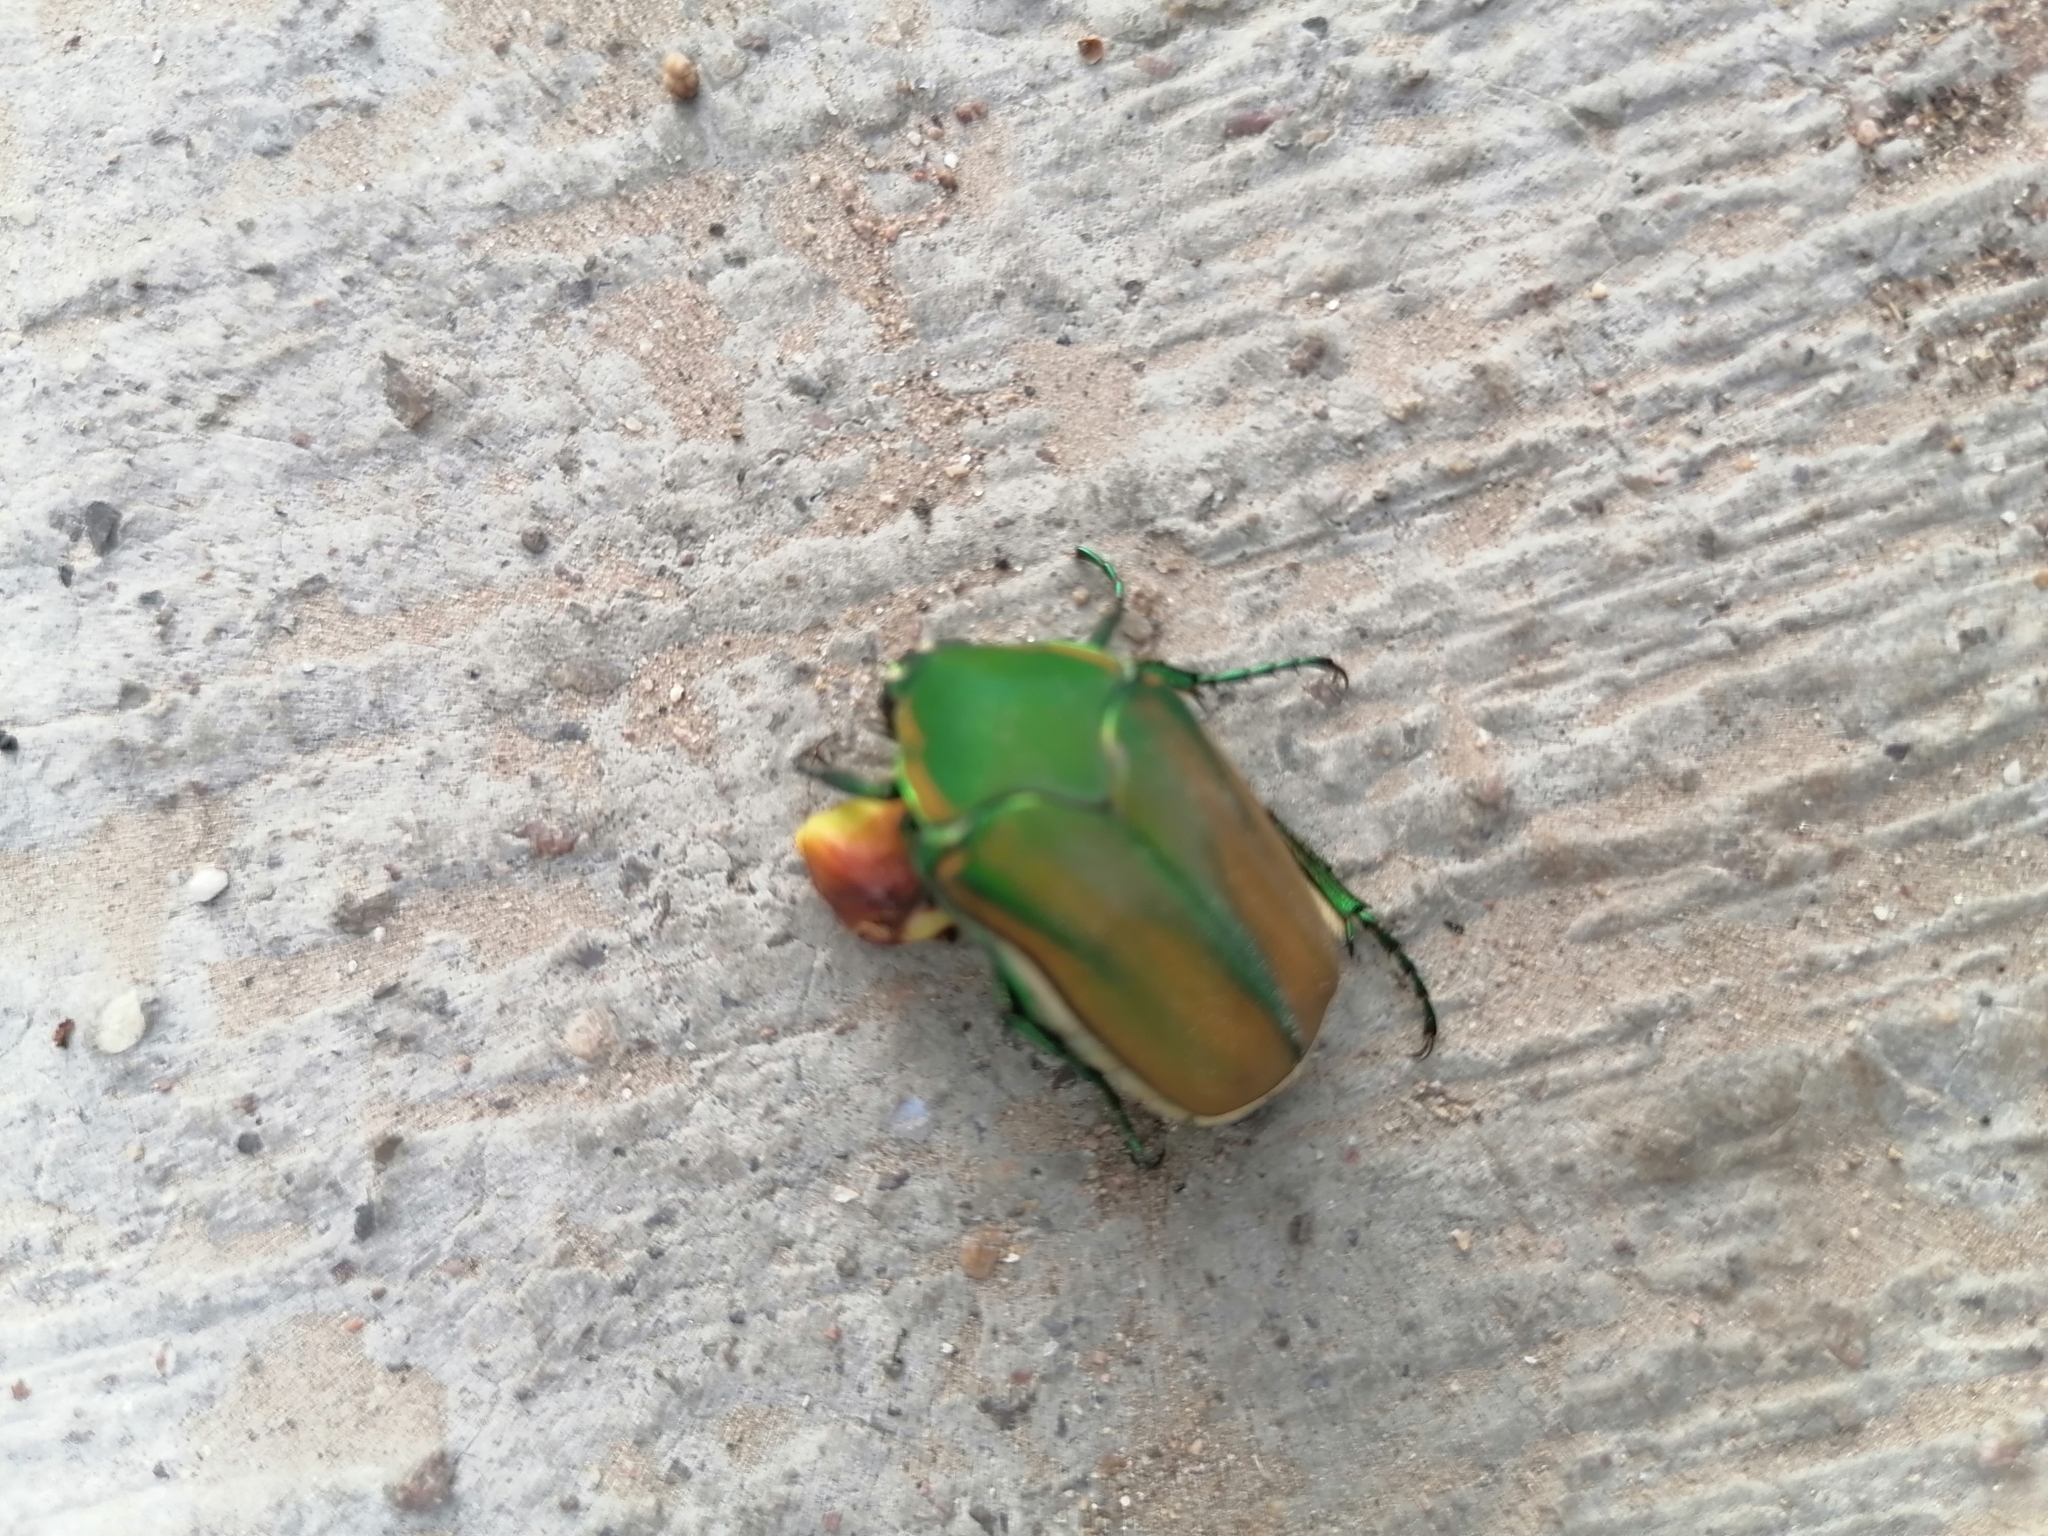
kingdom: Animalia
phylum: Arthropoda
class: Insecta
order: Coleoptera
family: Scarabaeidae
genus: Cotinis
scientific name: Cotinis mutabilis
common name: Figeater beetle
